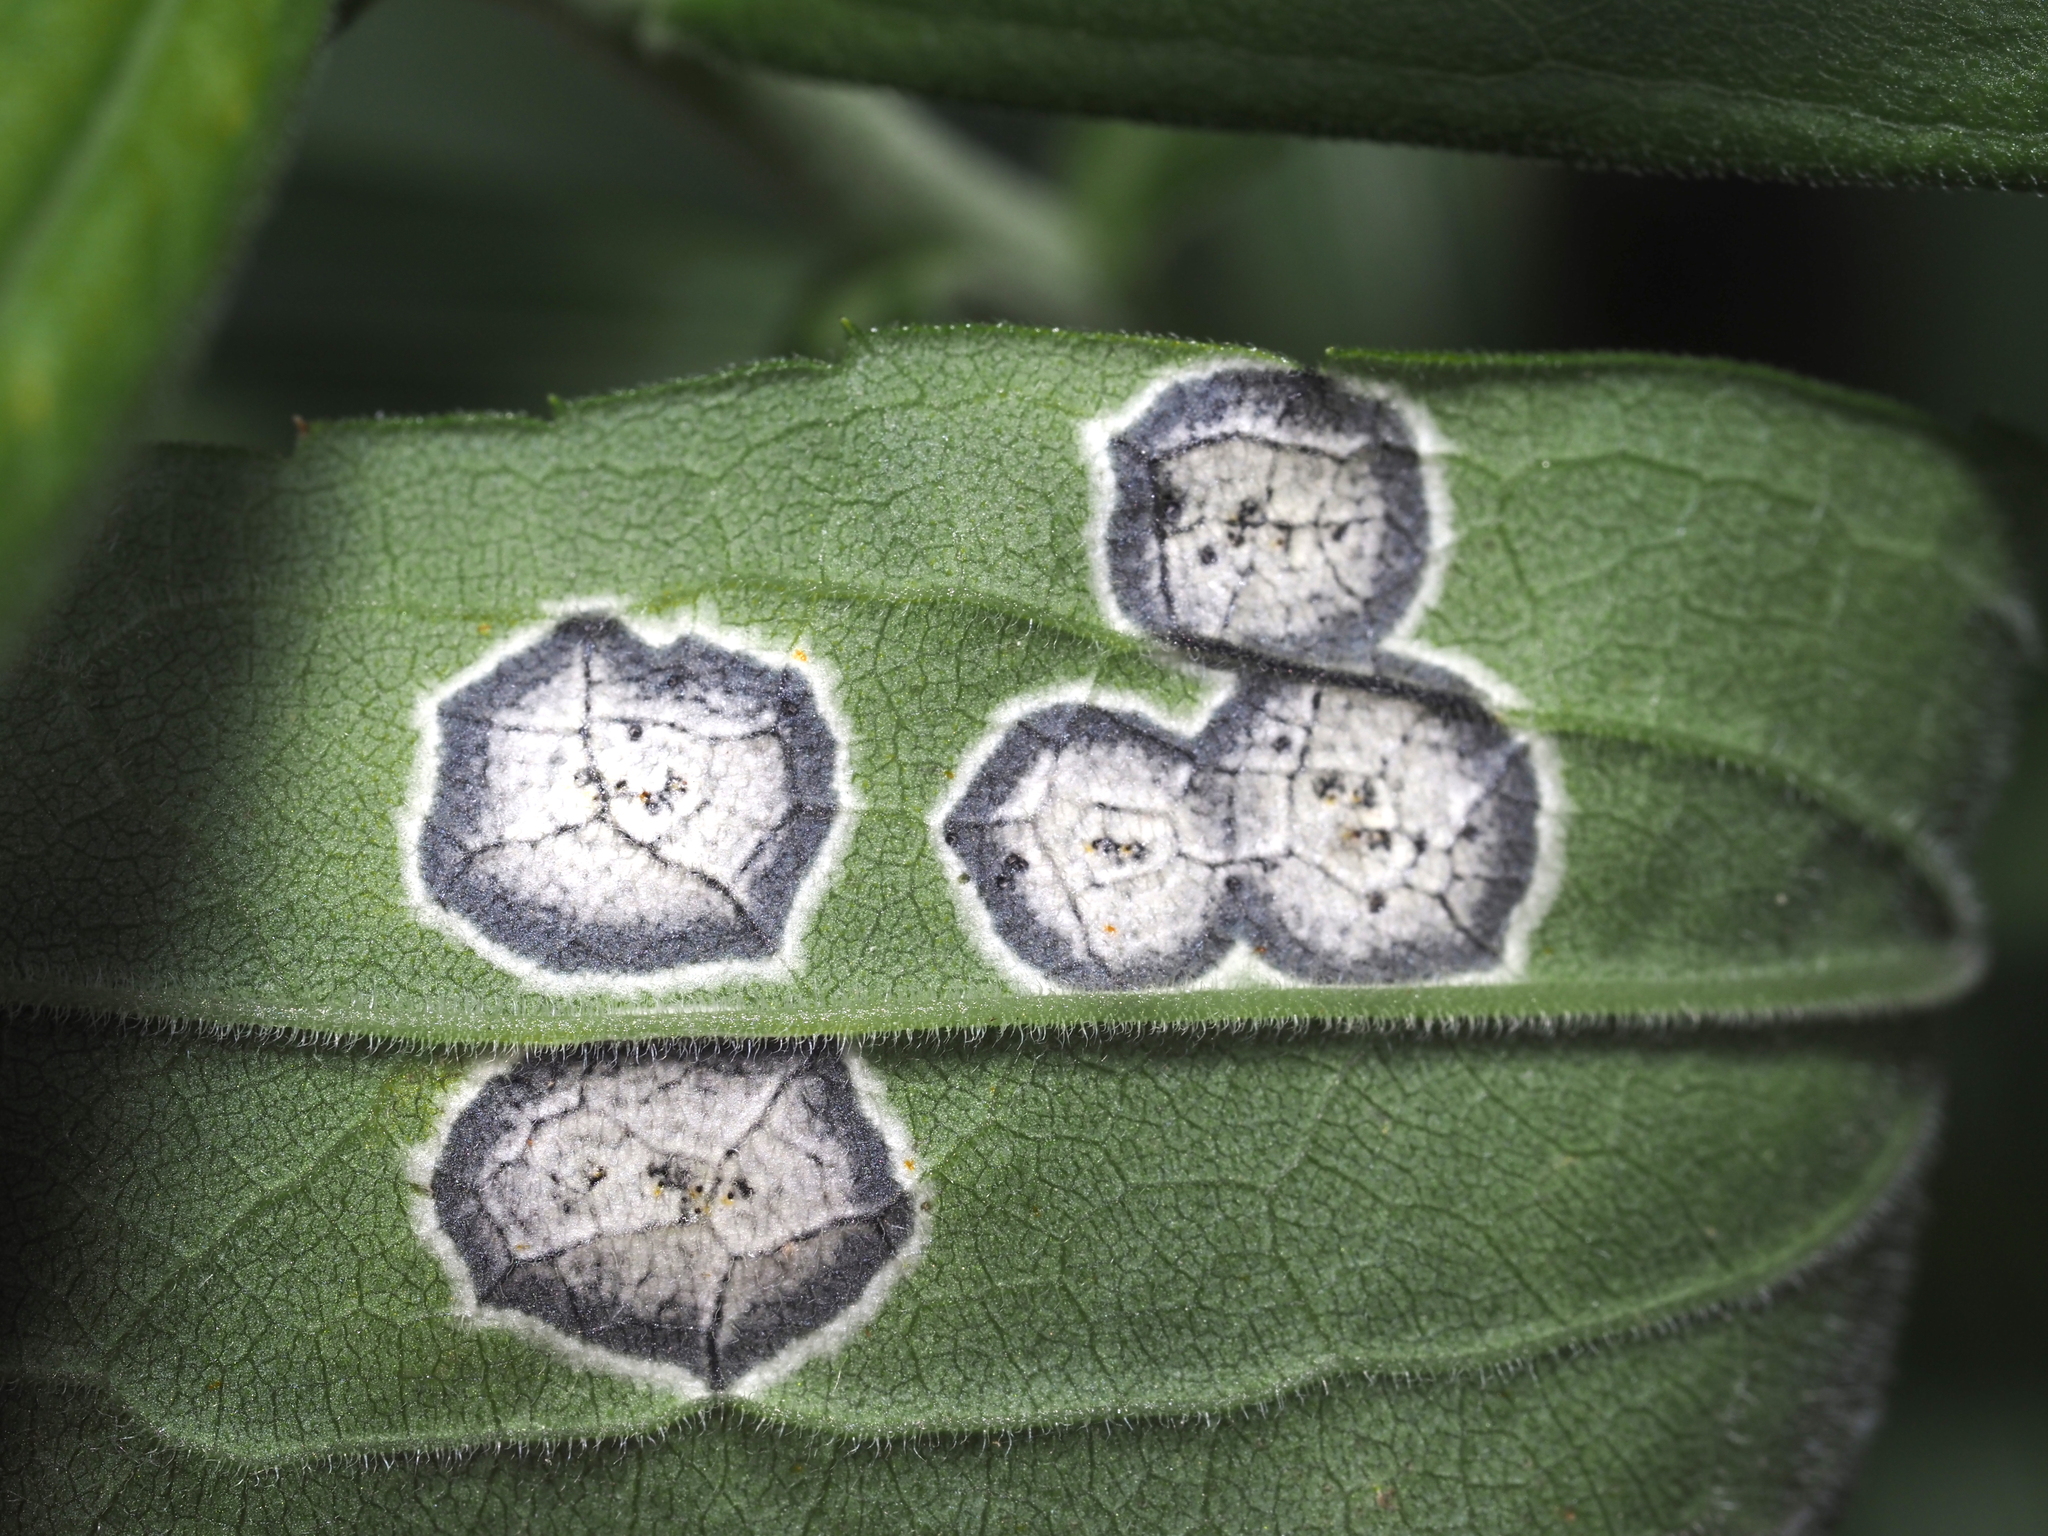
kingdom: Fungi
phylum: Ascomycota
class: Dothideomycetes
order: Botryosphaeriales
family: Botryosphaeriaceae
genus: Botryosphaeria
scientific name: Botryosphaeria dothidea
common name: Asteromyia gall midge fungus
